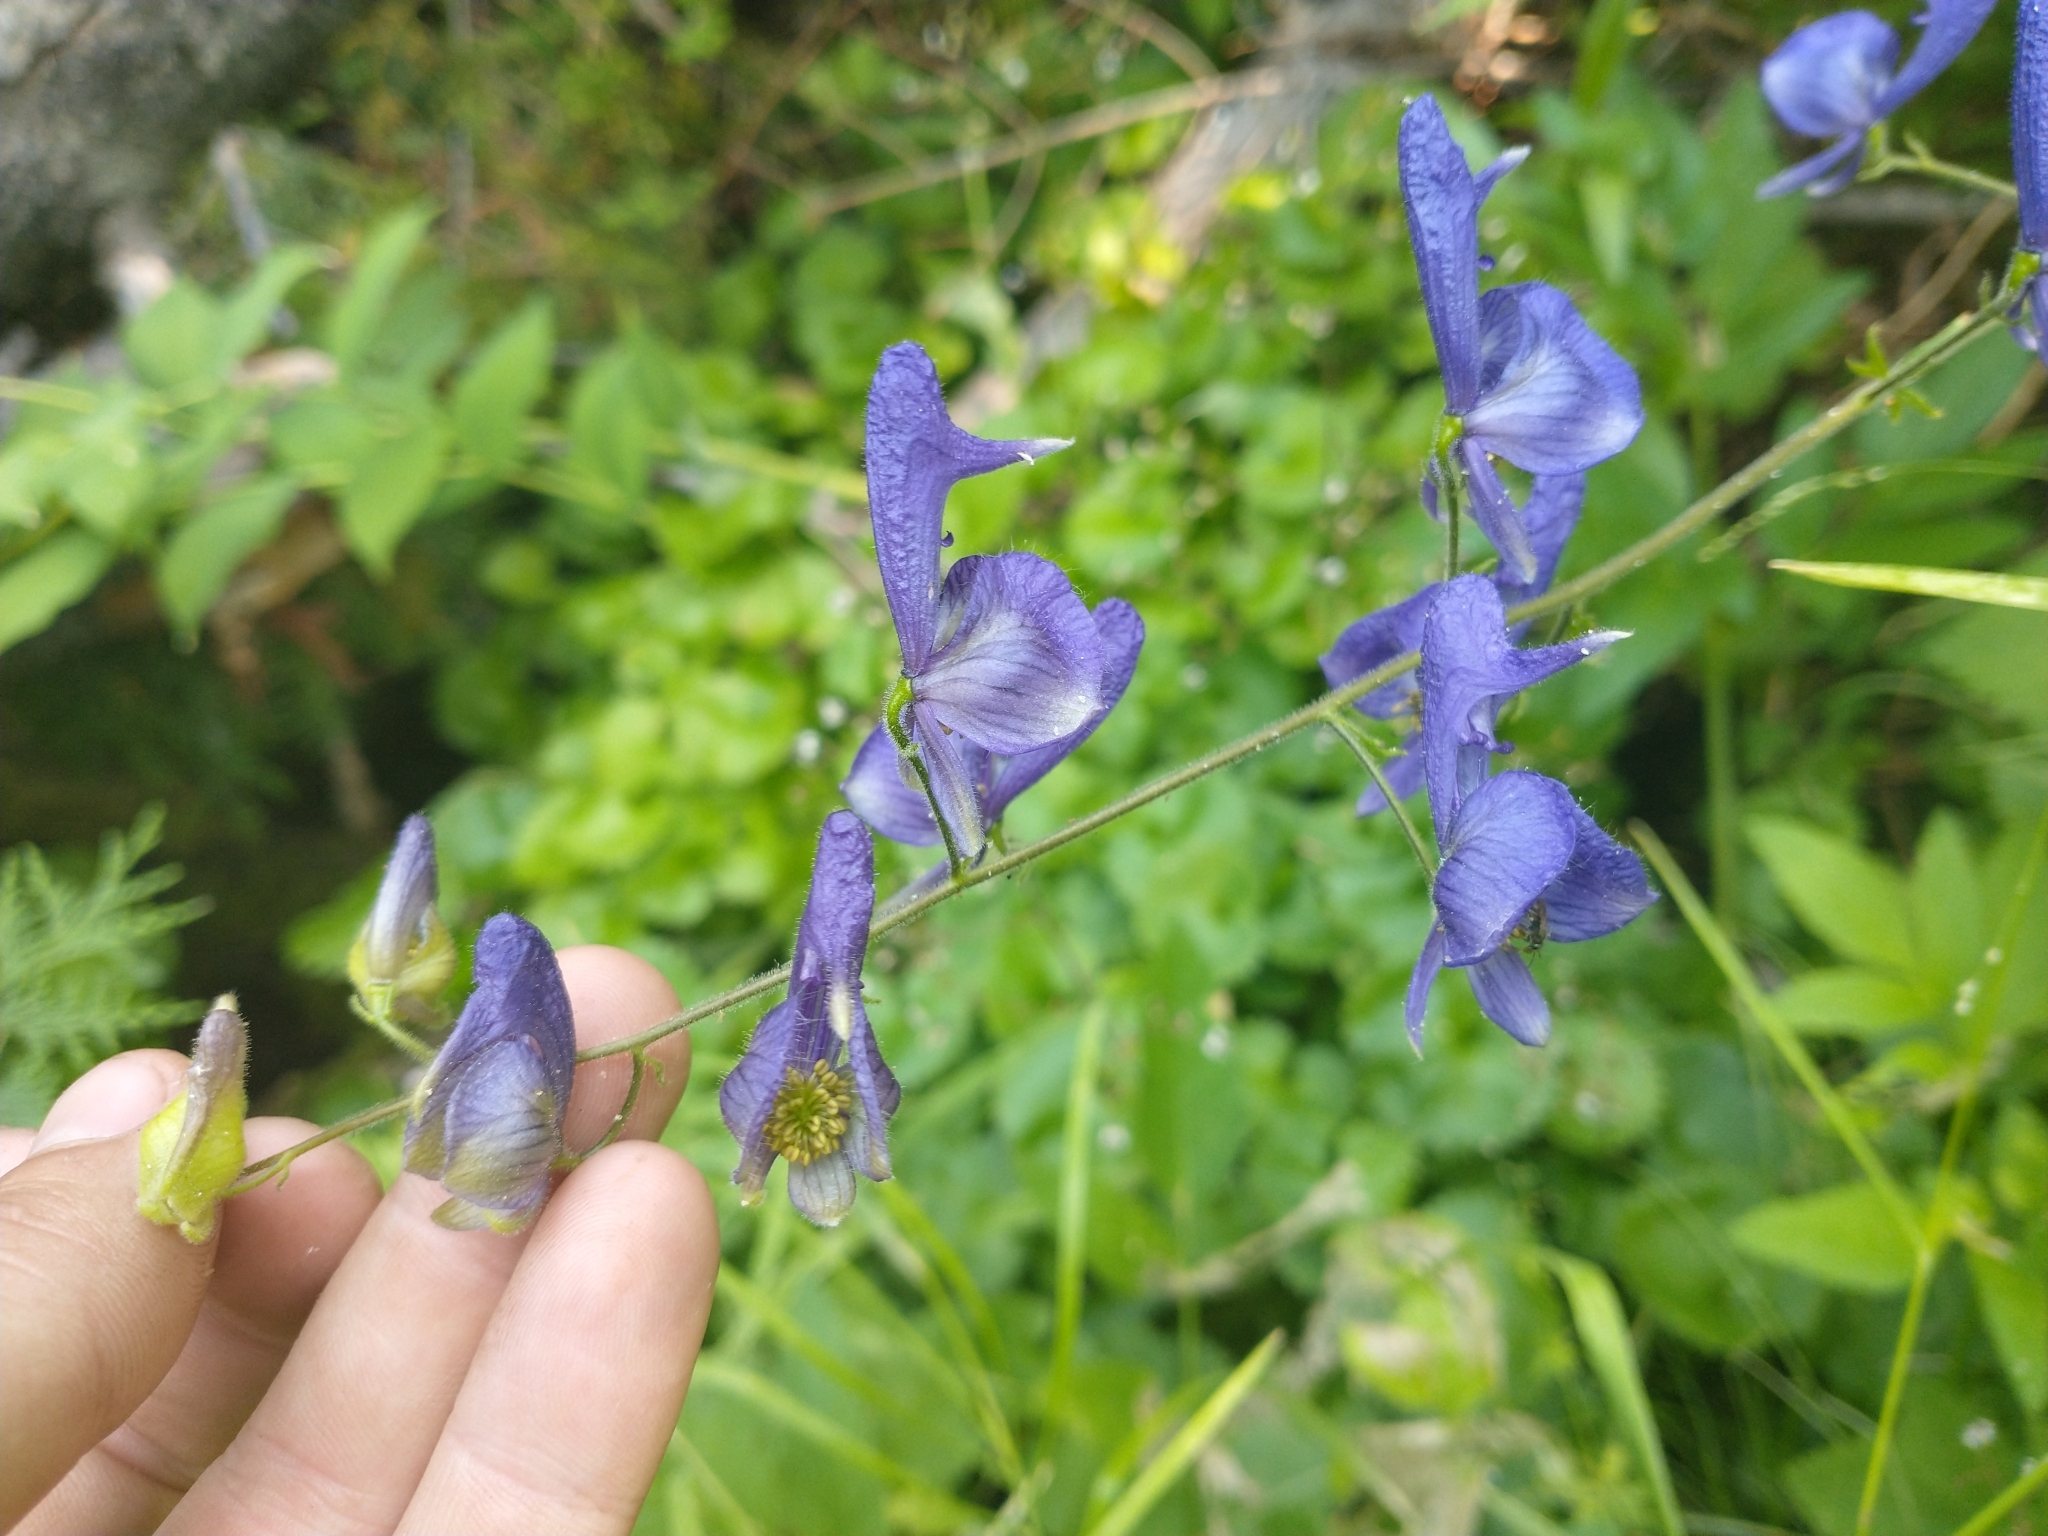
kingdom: Plantae
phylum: Tracheophyta
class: Magnoliopsida
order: Ranunculales
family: Ranunculaceae
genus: Aconitum
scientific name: Aconitum columbianum
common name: Columbia aconite
